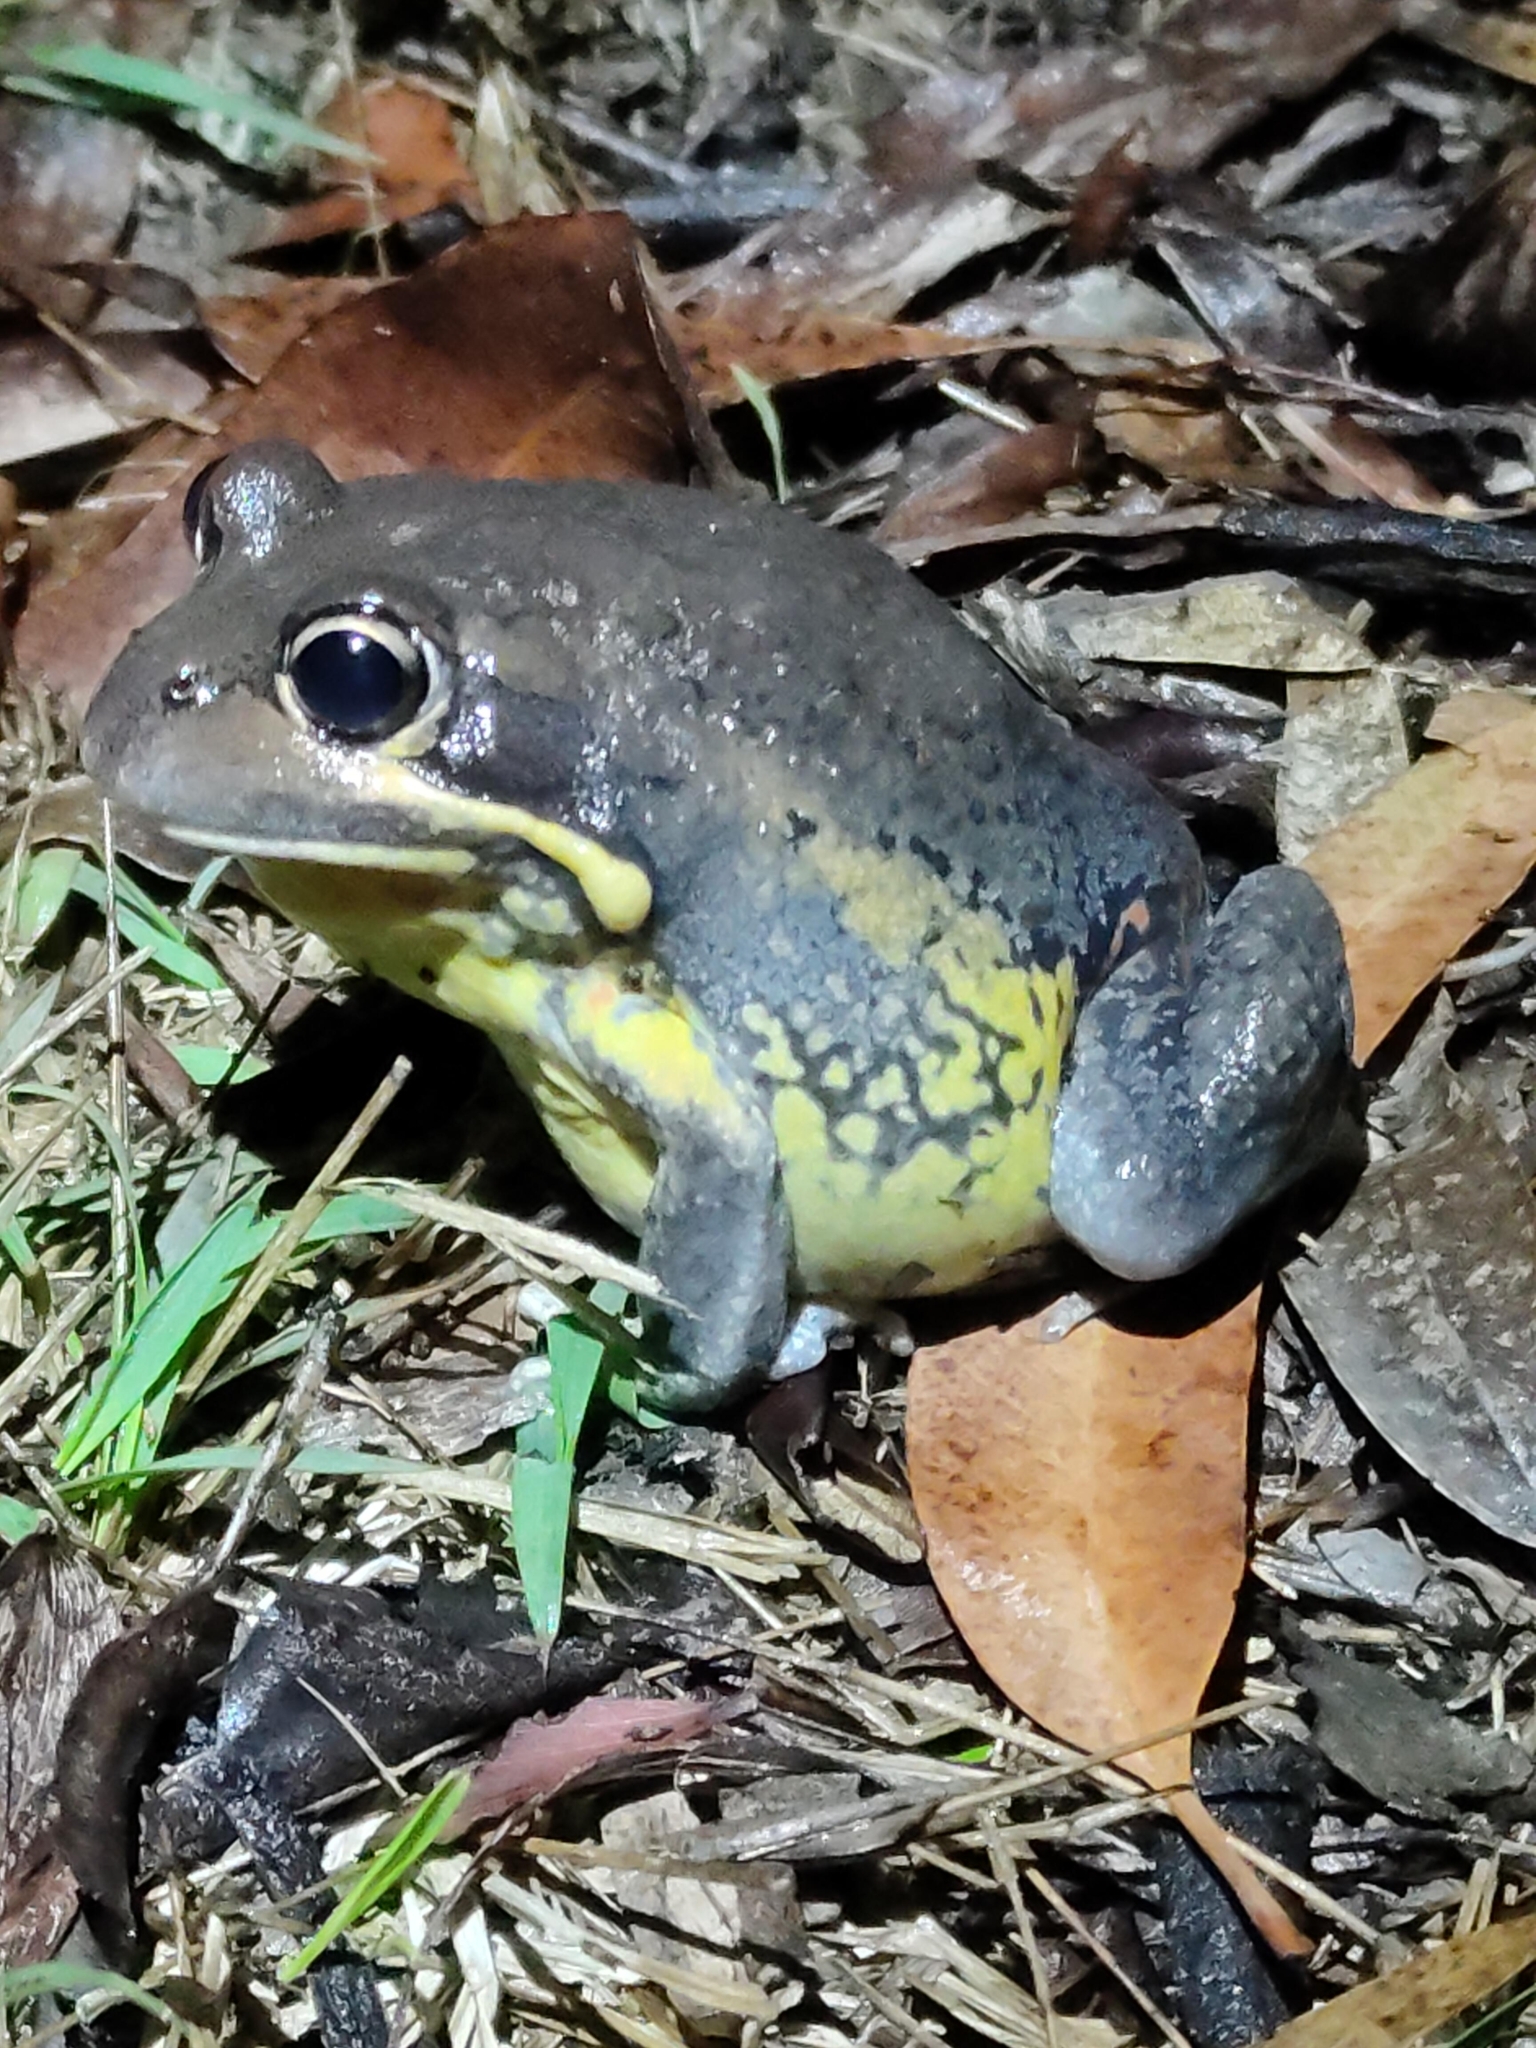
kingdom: Animalia
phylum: Chordata
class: Amphibia
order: Anura
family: Limnodynastidae
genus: Limnodynastes
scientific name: Limnodynastes terraereginae
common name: Northern banjo frog
